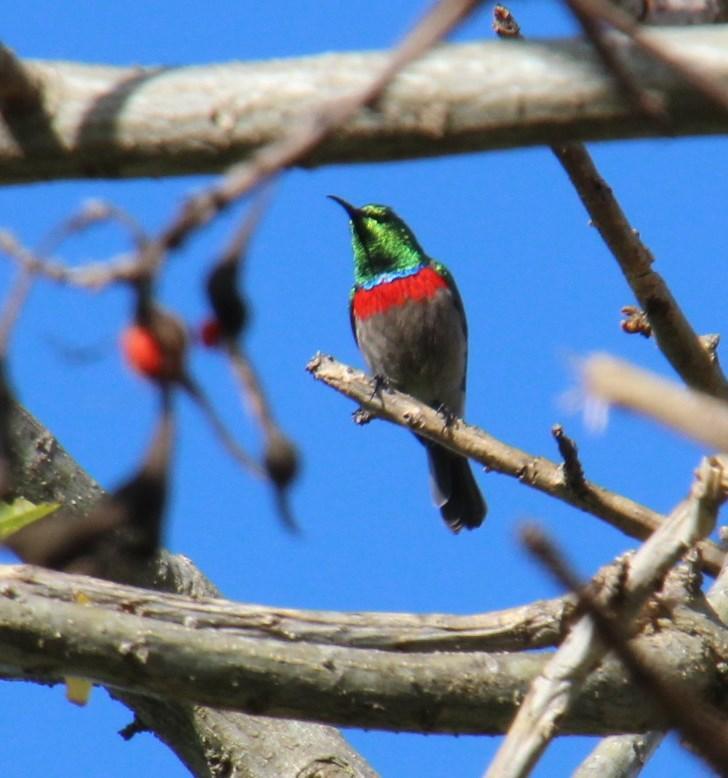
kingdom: Animalia
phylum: Chordata
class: Aves
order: Passeriformes
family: Nectariniidae
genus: Cinnyris
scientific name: Cinnyris chalybeus
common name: Southern double-collared sunbird
